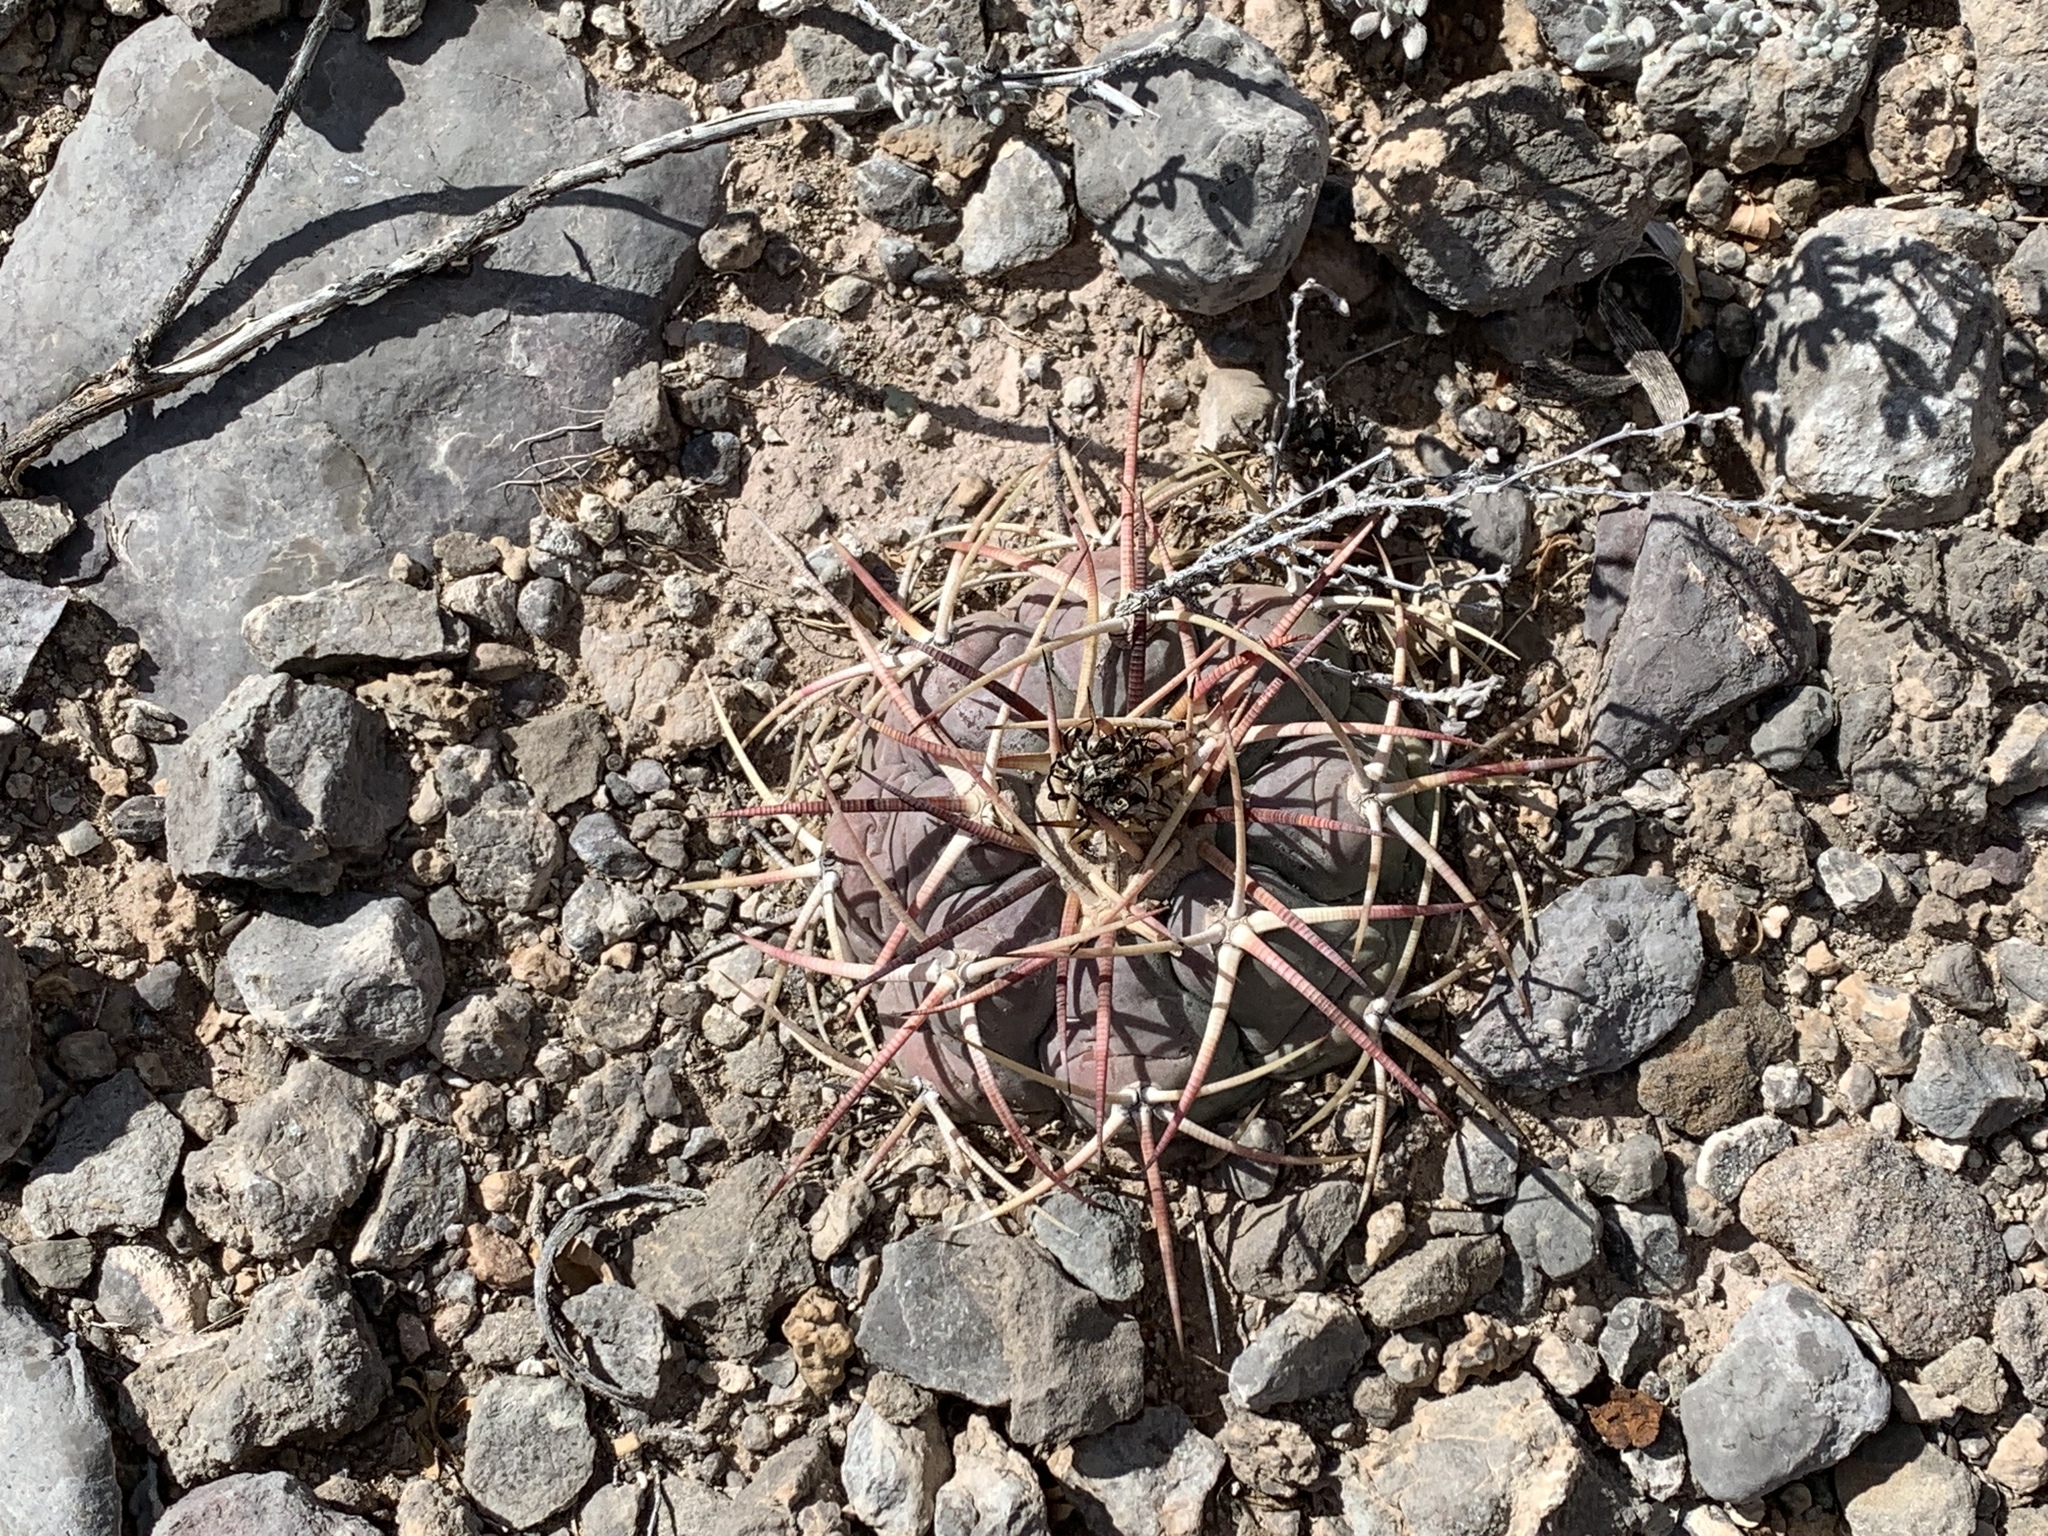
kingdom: Plantae
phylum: Tracheophyta
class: Magnoliopsida
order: Caryophyllales
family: Cactaceae
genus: Echinocactus
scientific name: Echinocactus horizonthalonius
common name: Devilshead
